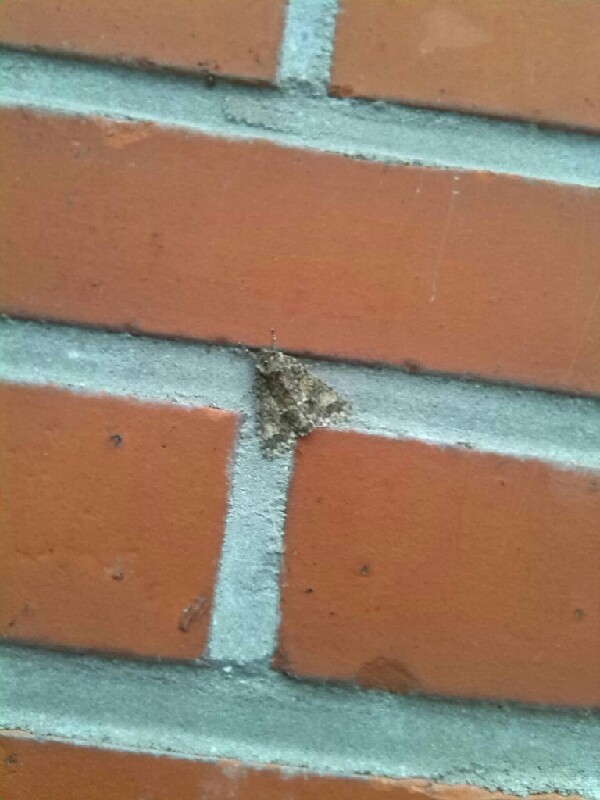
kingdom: Animalia
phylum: Arthropoda
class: Insecta
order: Lepidoptera
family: Noctuidae
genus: Acronicta
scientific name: Acronicta megacephala
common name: Poplar grey
